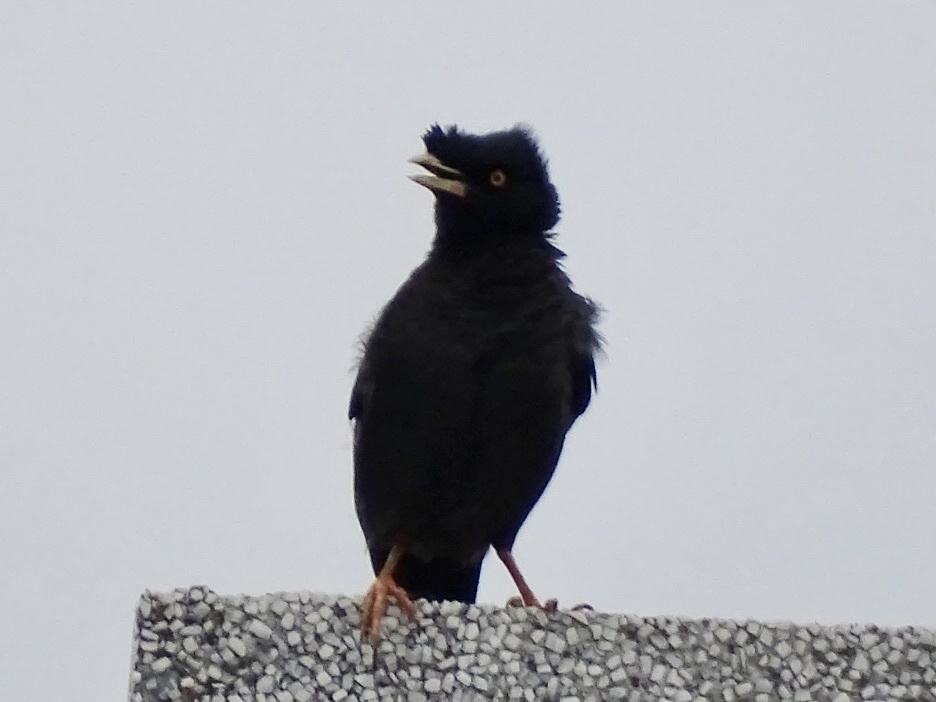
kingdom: Animalia
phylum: Chordata
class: Aves
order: Passeriformes
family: Sturnidae
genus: Acridotheres
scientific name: Acridotheres cristatellus
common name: Crested myna
